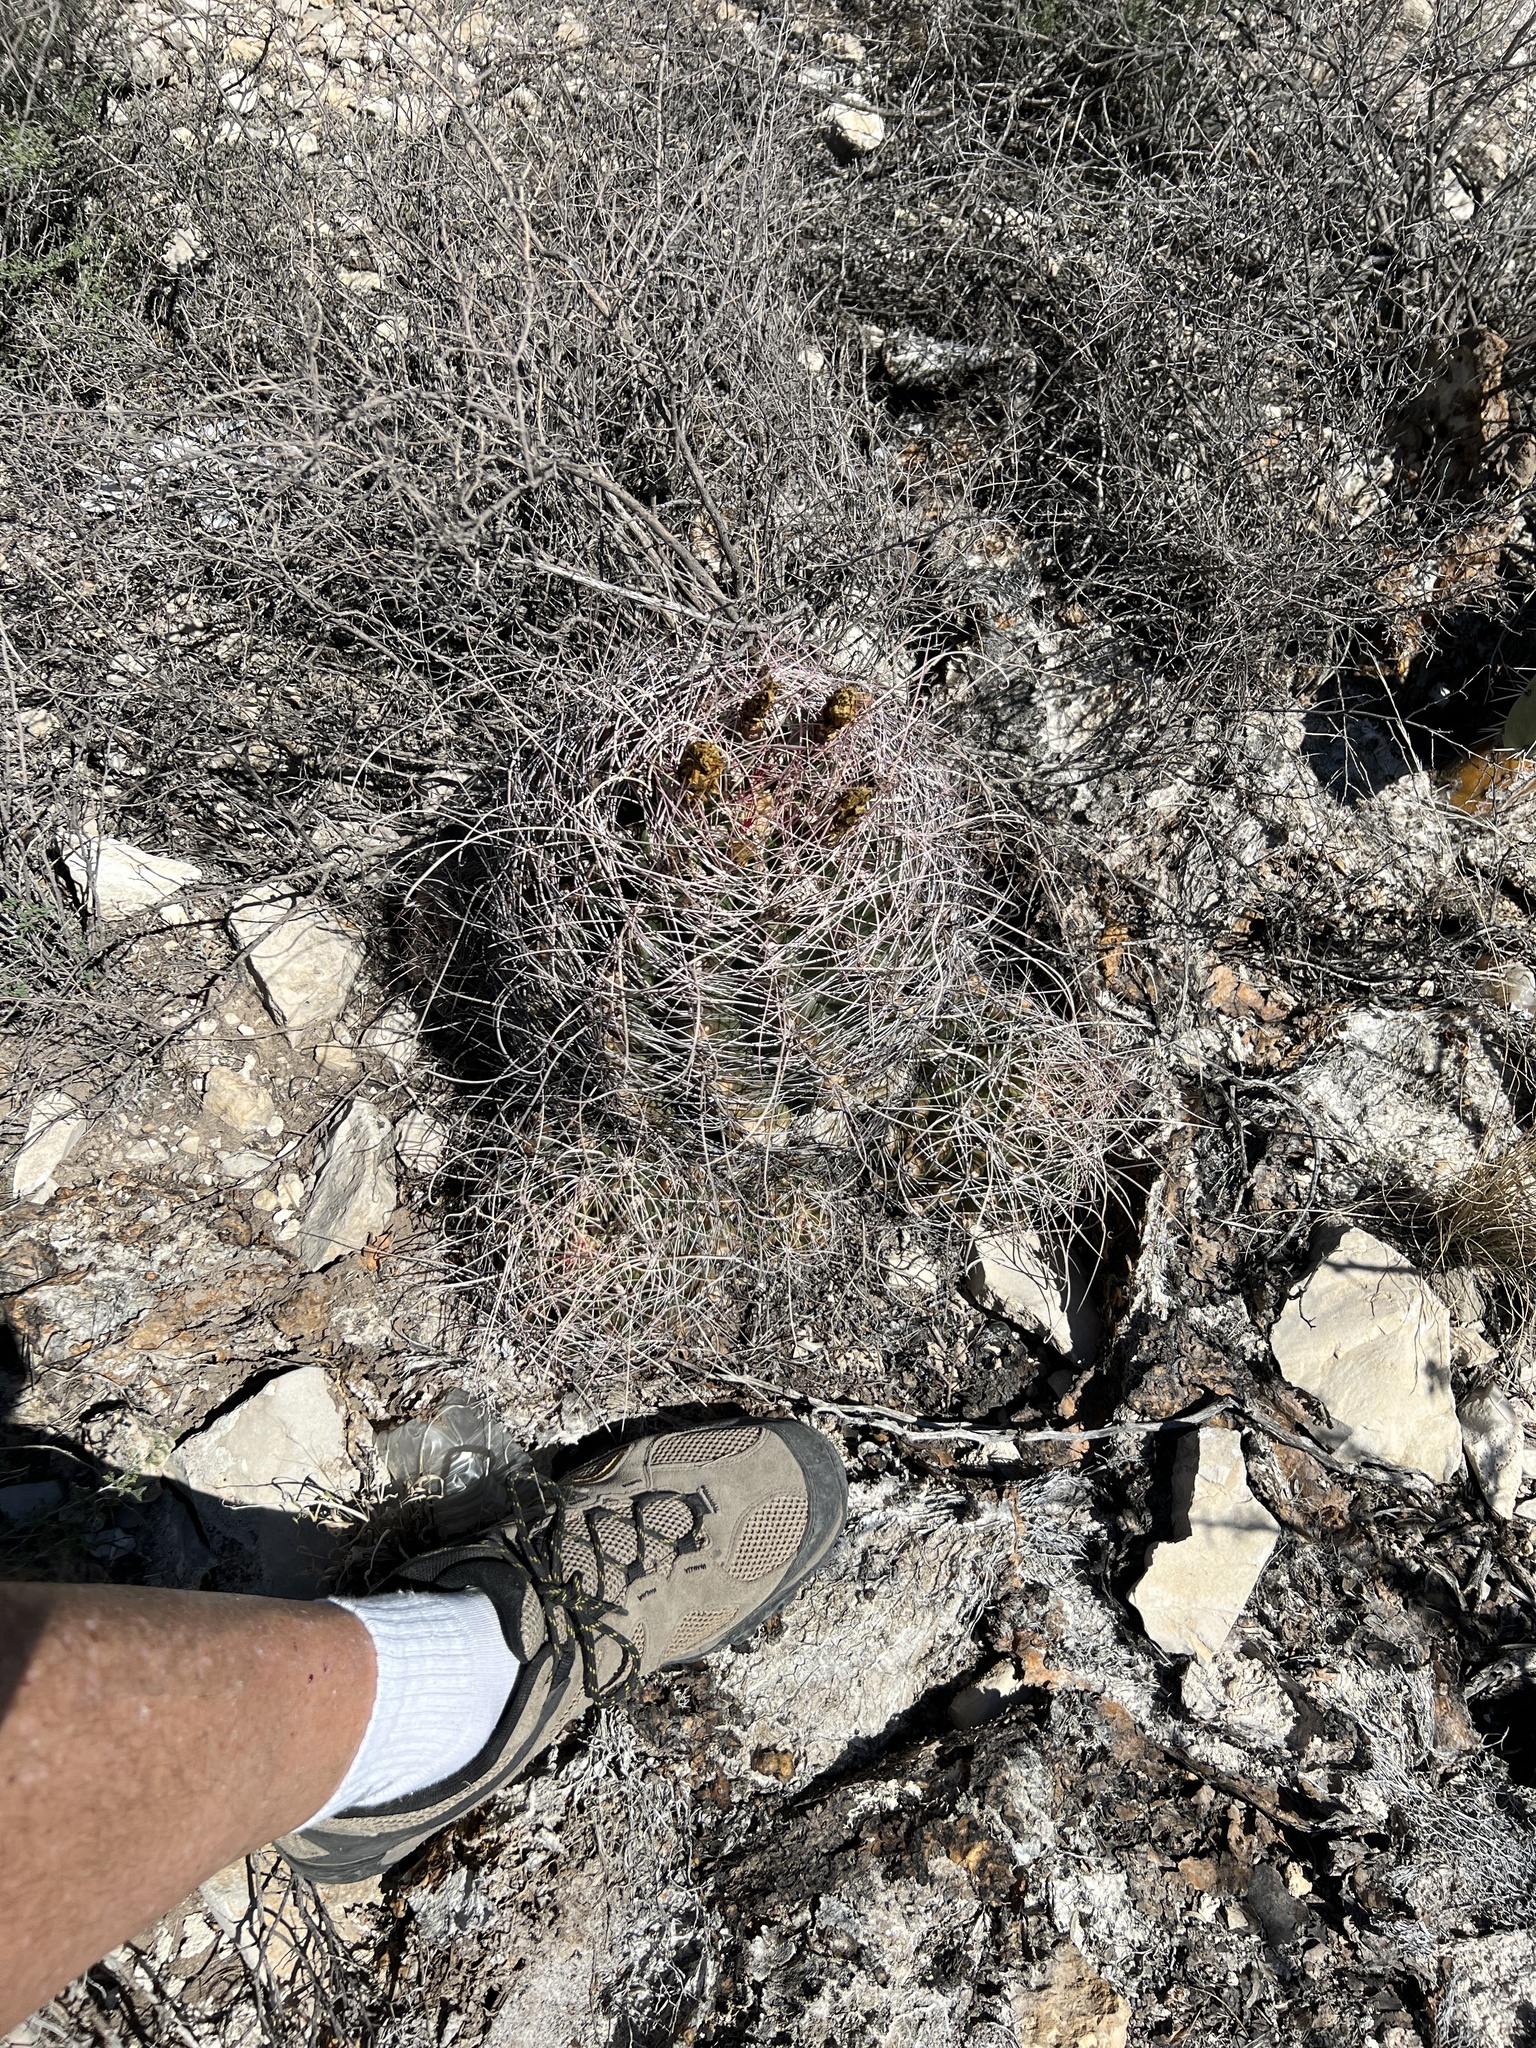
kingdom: Plantae
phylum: Tracheophyta
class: Magnoliopsida
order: Caryophyllales
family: Cactaceae
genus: Bisnaga
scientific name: Bisnaga hamatacantha
